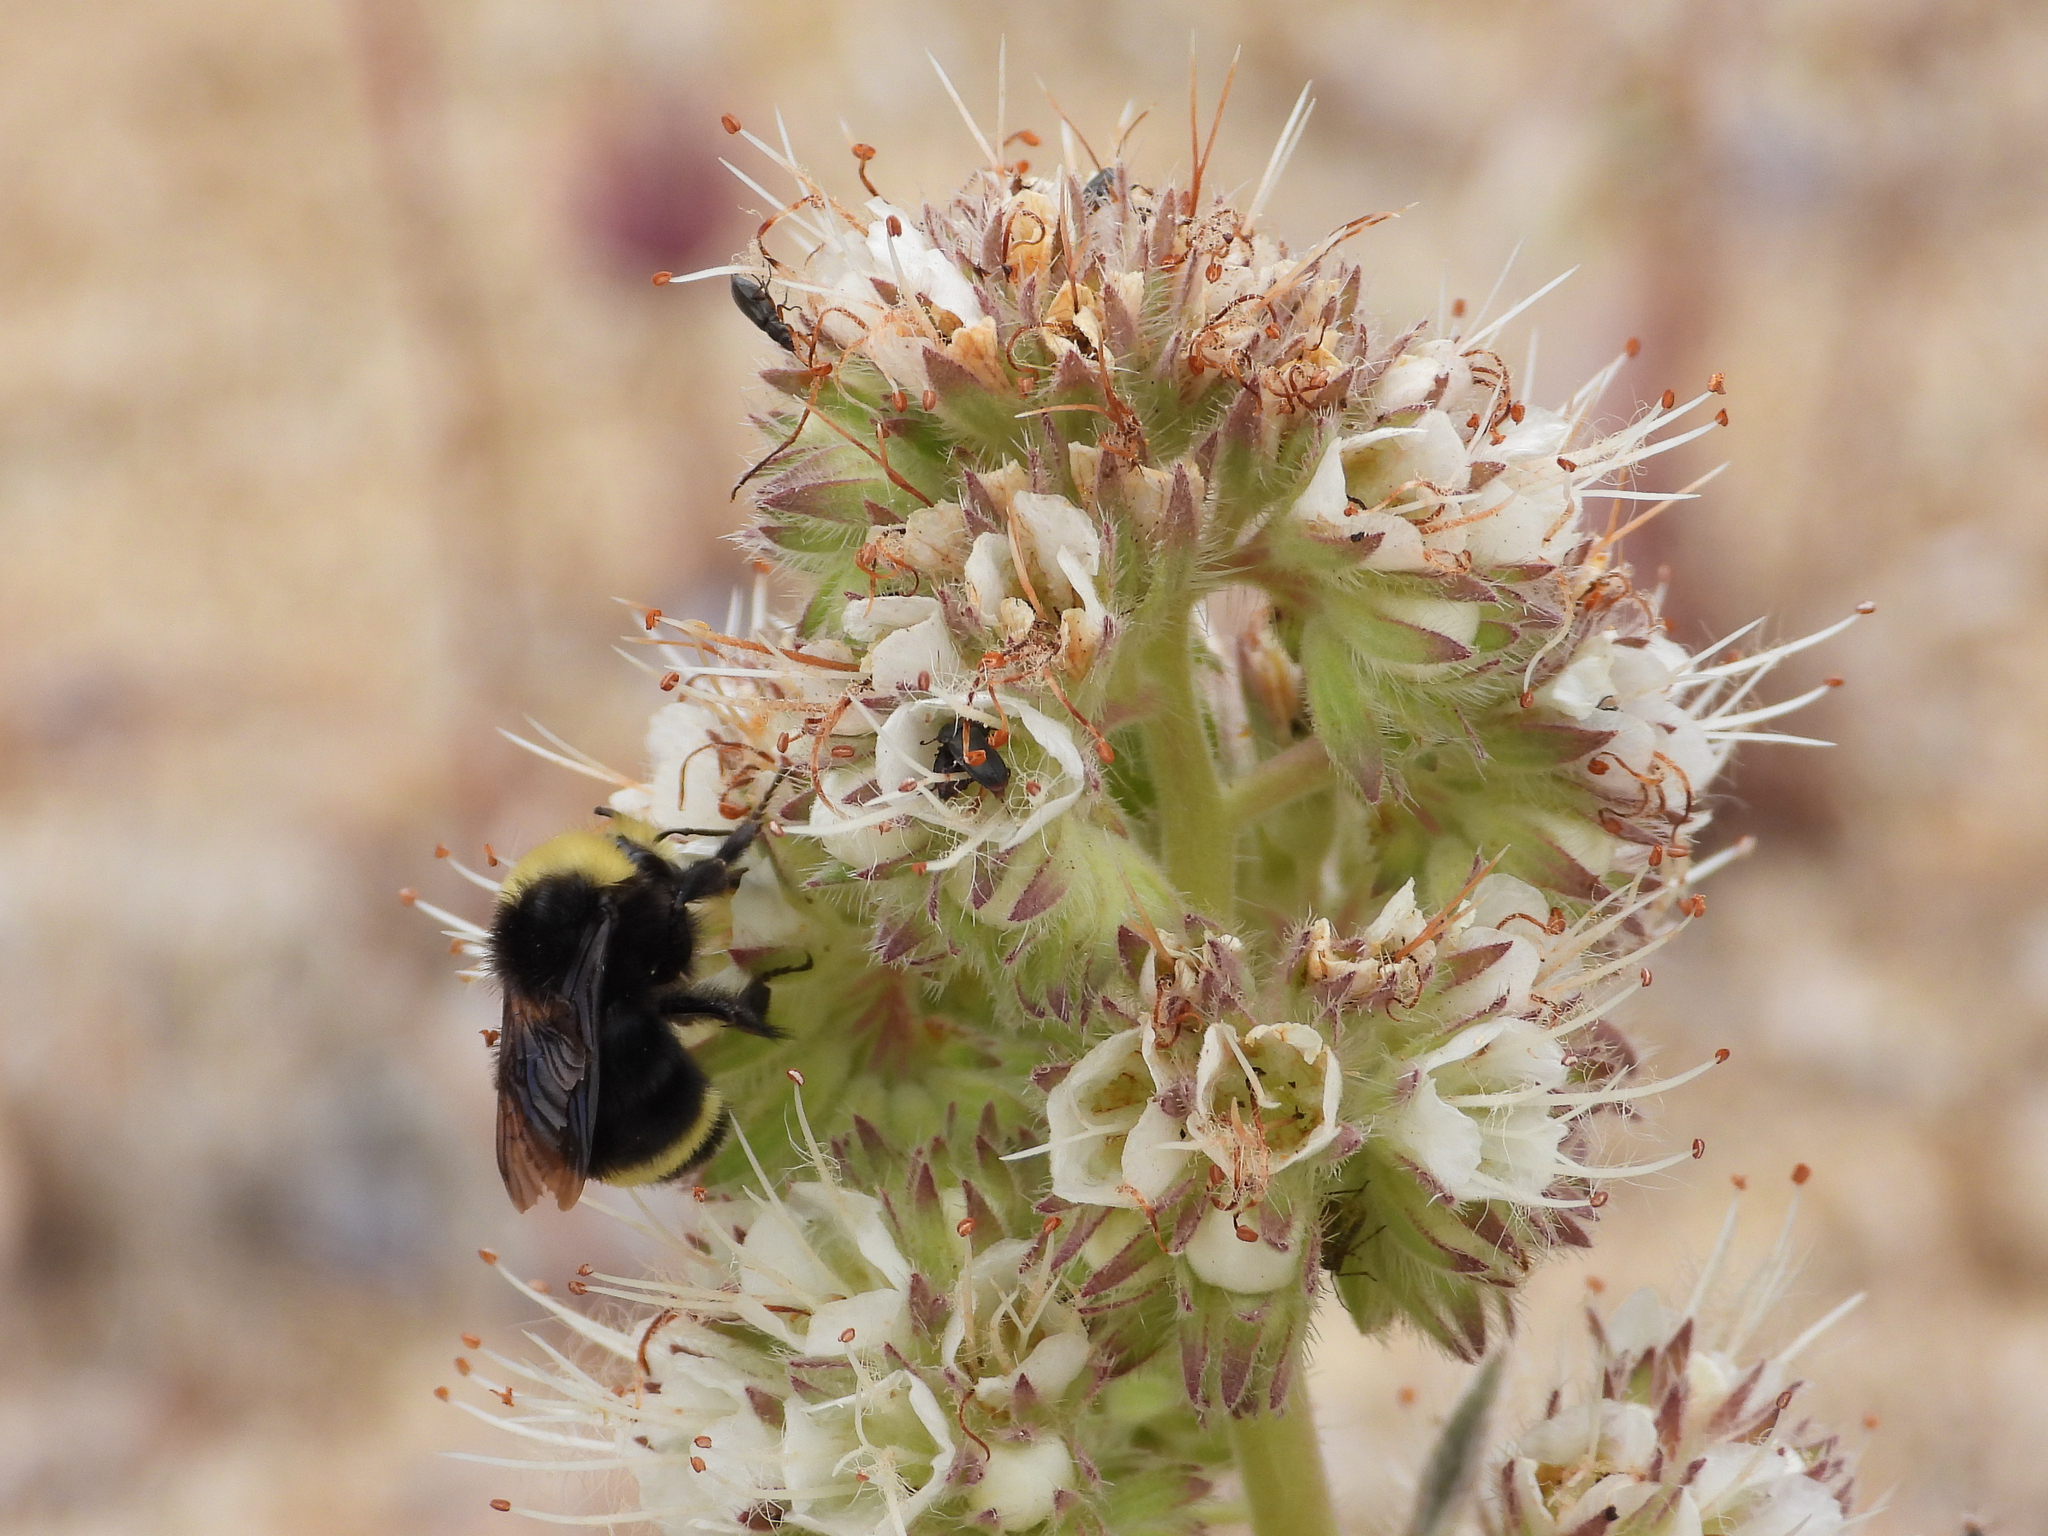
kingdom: Animalia
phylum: Arthropoda
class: Insecta
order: Hymenoptera
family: Apidae
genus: Bombus
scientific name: Bombus vosnesenskii
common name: Vosnesensky bumble bee
